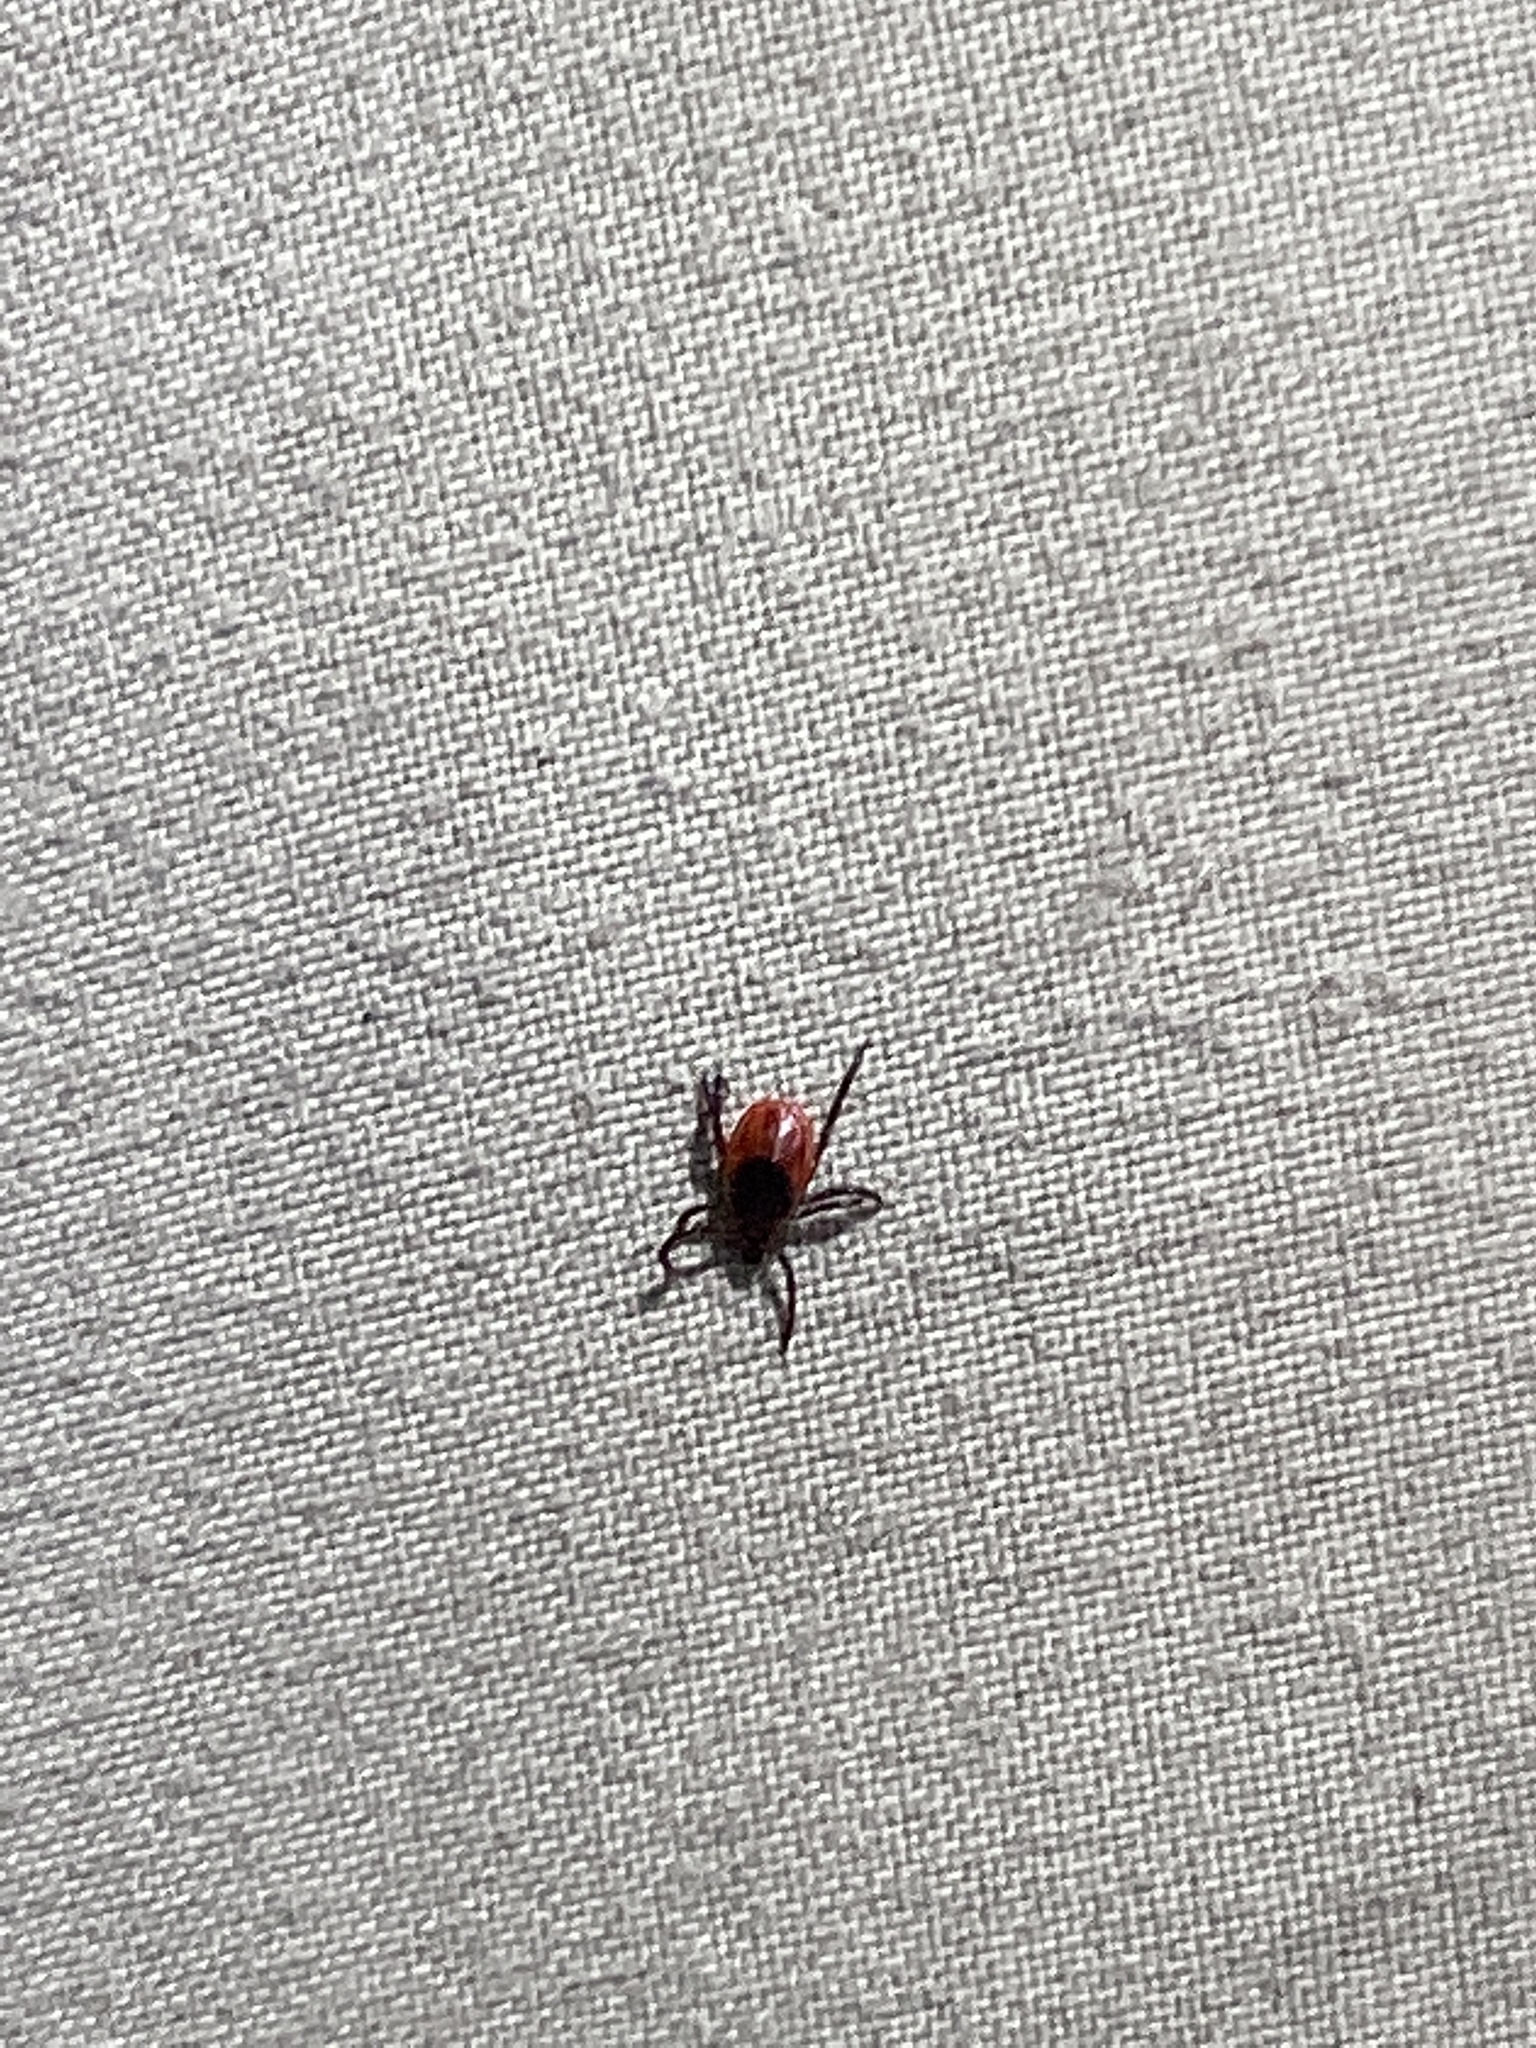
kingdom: Animalia
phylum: Arthropoda
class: Arachnida
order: Ixodida
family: Ixodidae
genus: Ixodes
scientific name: Ixodes scapularis
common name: Black legged tick
